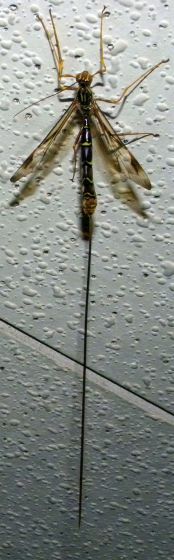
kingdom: Animalia
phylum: Arthropoda
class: Insecta
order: Hymenoptera
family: Ichneumonidae
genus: Megarhyssa
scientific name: Megarhyssa macrura
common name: Long-tailed giant ichneumonid wasp
